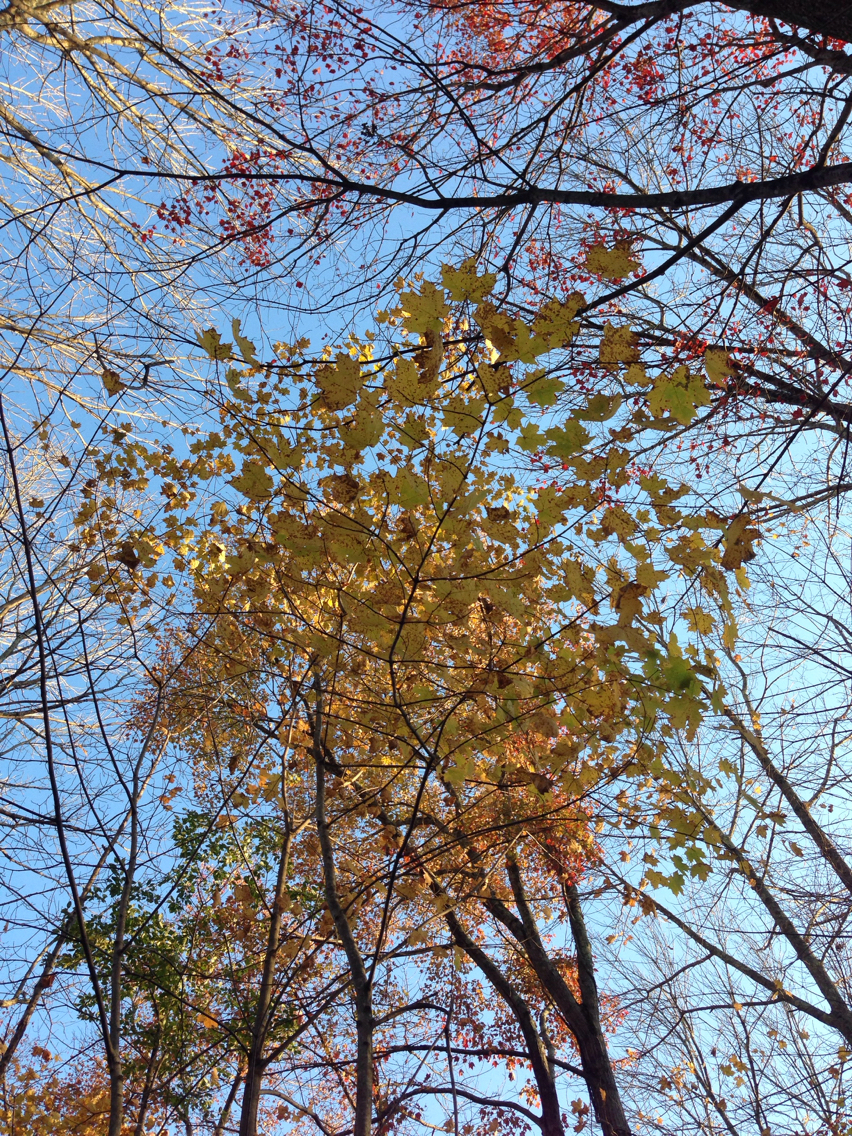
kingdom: Plantae
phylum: Tracheophyta
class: Magnoliopsida
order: Sapindales
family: Sapindaceae
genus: Acer
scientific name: Acer saccharum
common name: Sugar maple
